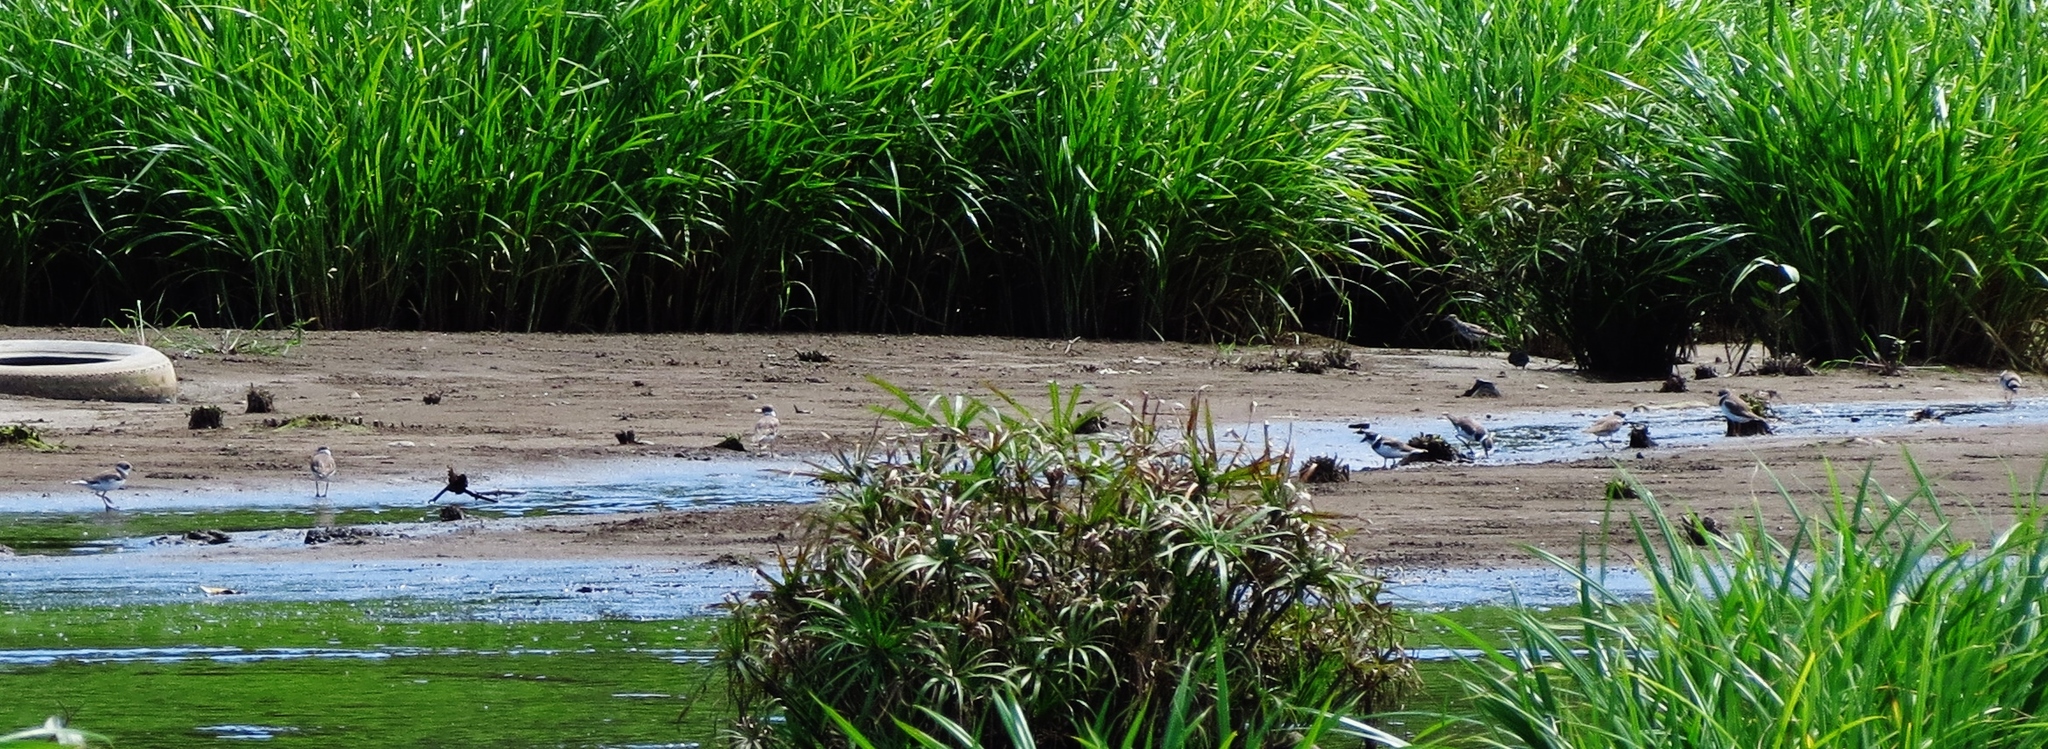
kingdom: Animalia
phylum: Chordata
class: Aves
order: Charadriiformes
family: Charadriidae
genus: Charadrius
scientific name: Charadrius semipalmatus
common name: Semipalmated plover
